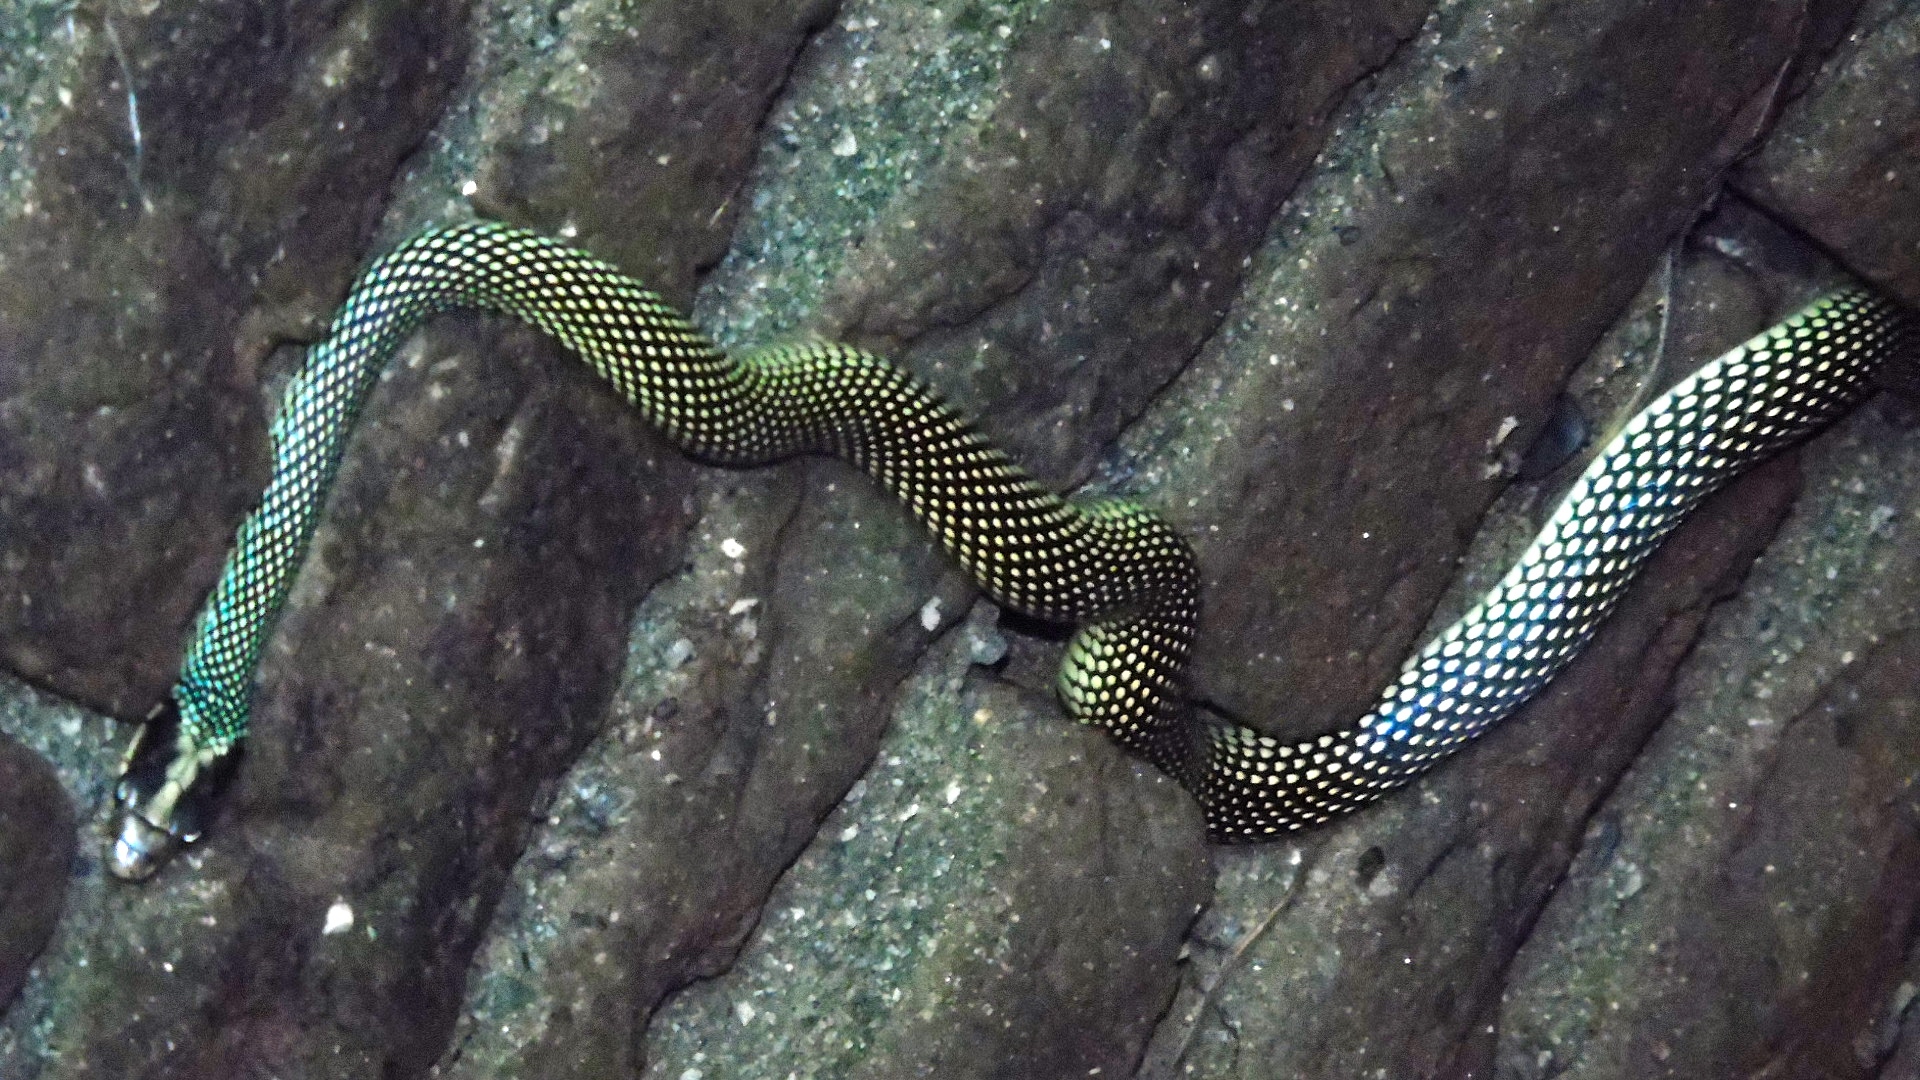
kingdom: Animalia
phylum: Chordata
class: Squamata
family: Colubridae
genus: Drymobius
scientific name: Drymobius margaritiferus
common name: Central american speckled racer
